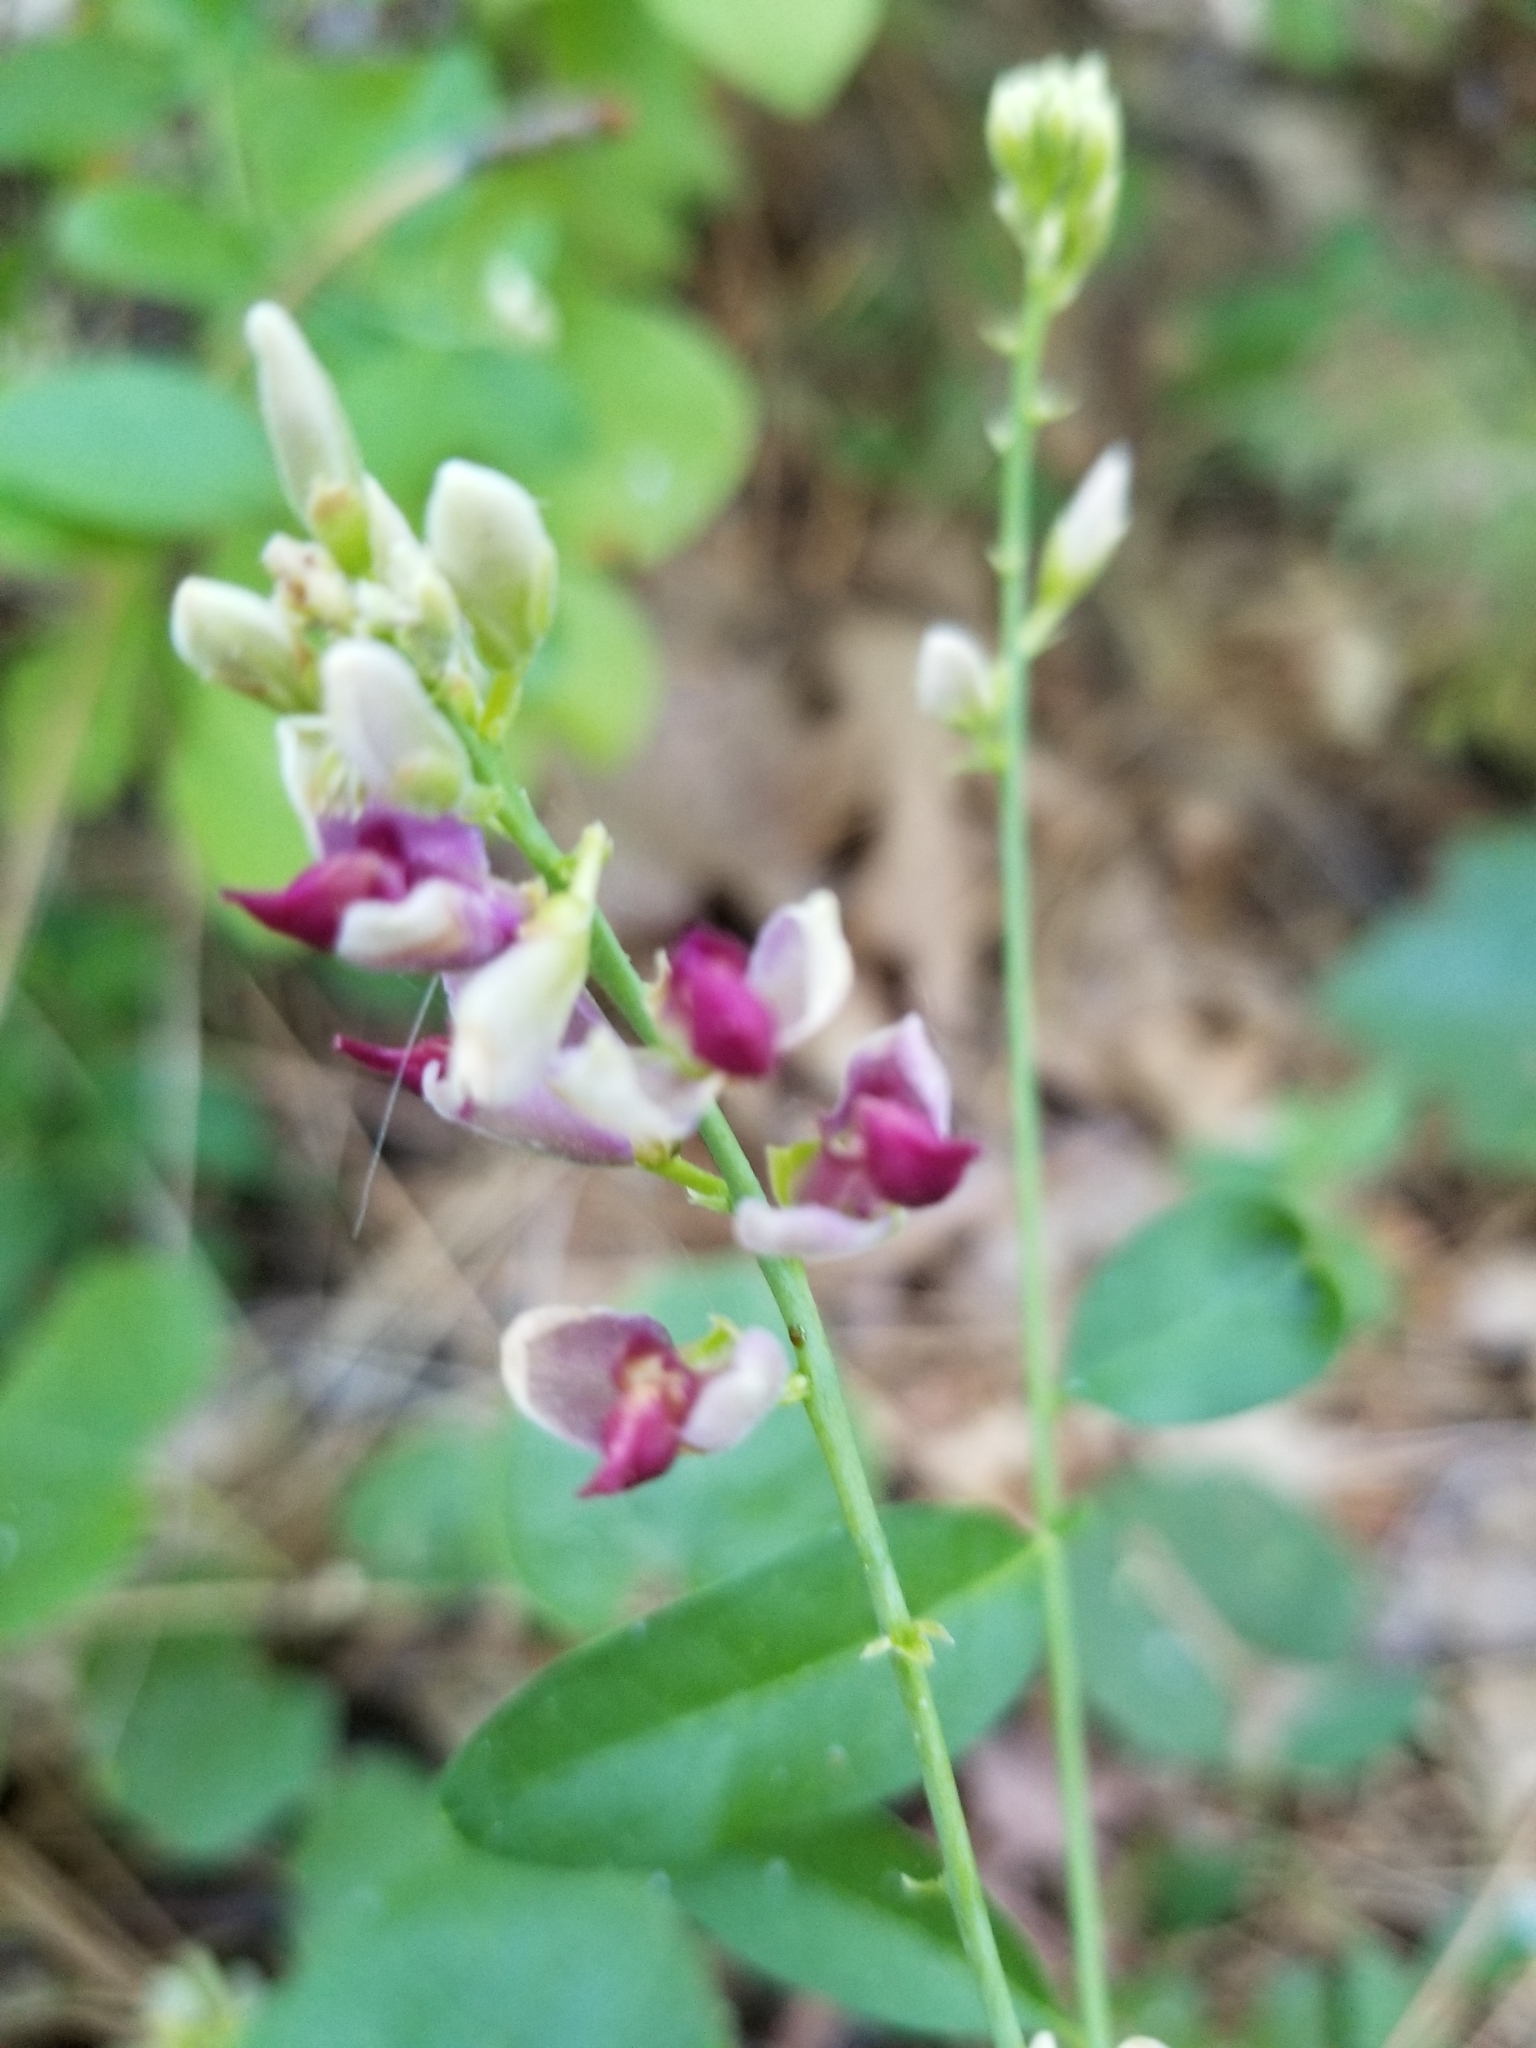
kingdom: Plantae
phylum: Tracheophyta
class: Magnoliopsida
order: Fabales
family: Polygalaceae
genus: Rhinotropis
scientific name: Rhinotropis cornuta
